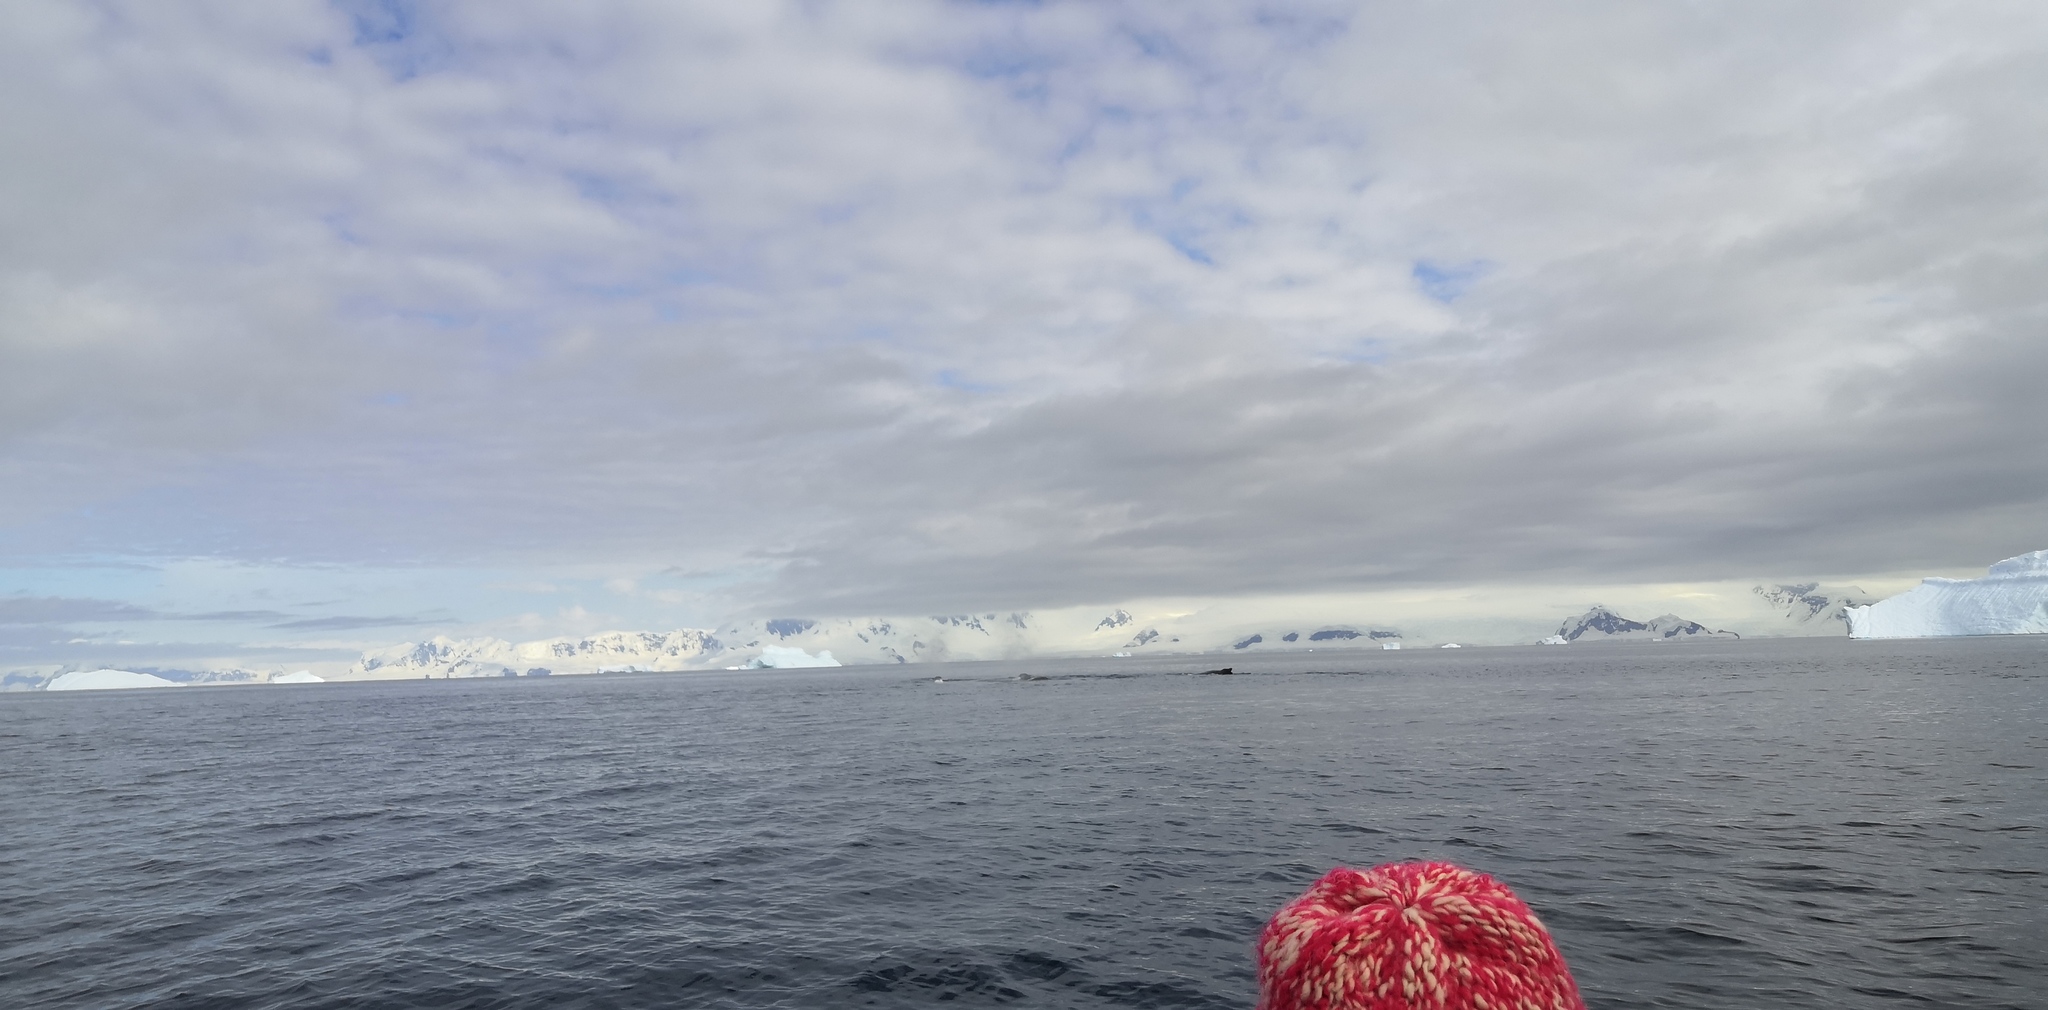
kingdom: Animalia
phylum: Chordata
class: Mammalia
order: Cetacea
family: Balaenopteridae
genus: Megaptera
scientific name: Megaptera novaeangliae
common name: Humpback whale
